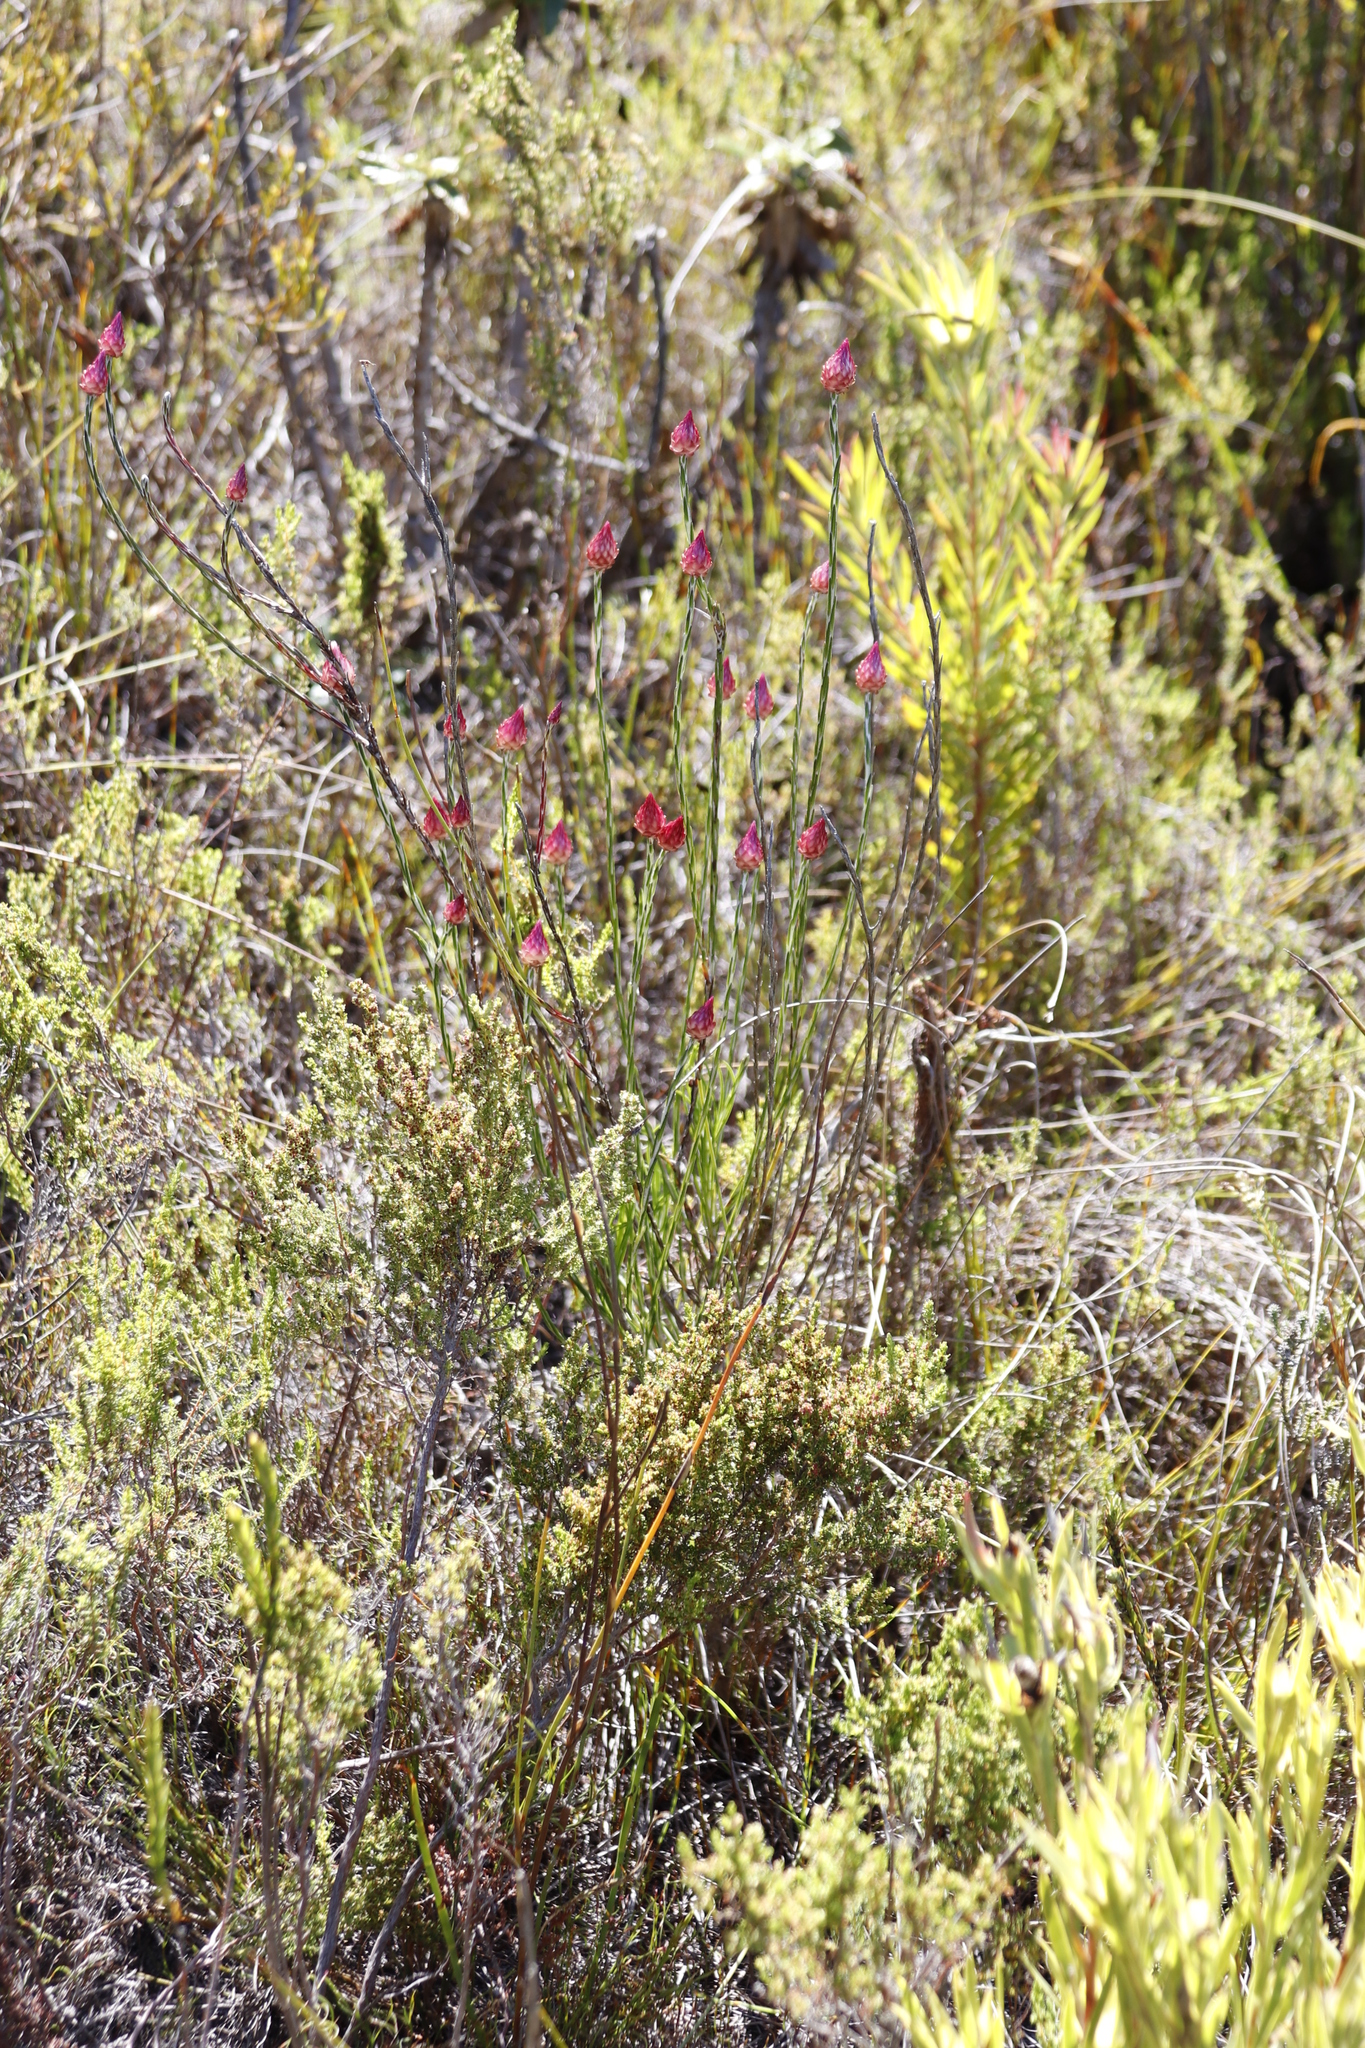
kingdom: Plantae
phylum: Tracheophyta
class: Magnoliopsida
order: Asterales
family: Asteraceae
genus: Edmondia
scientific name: Edmondia sesamoides
